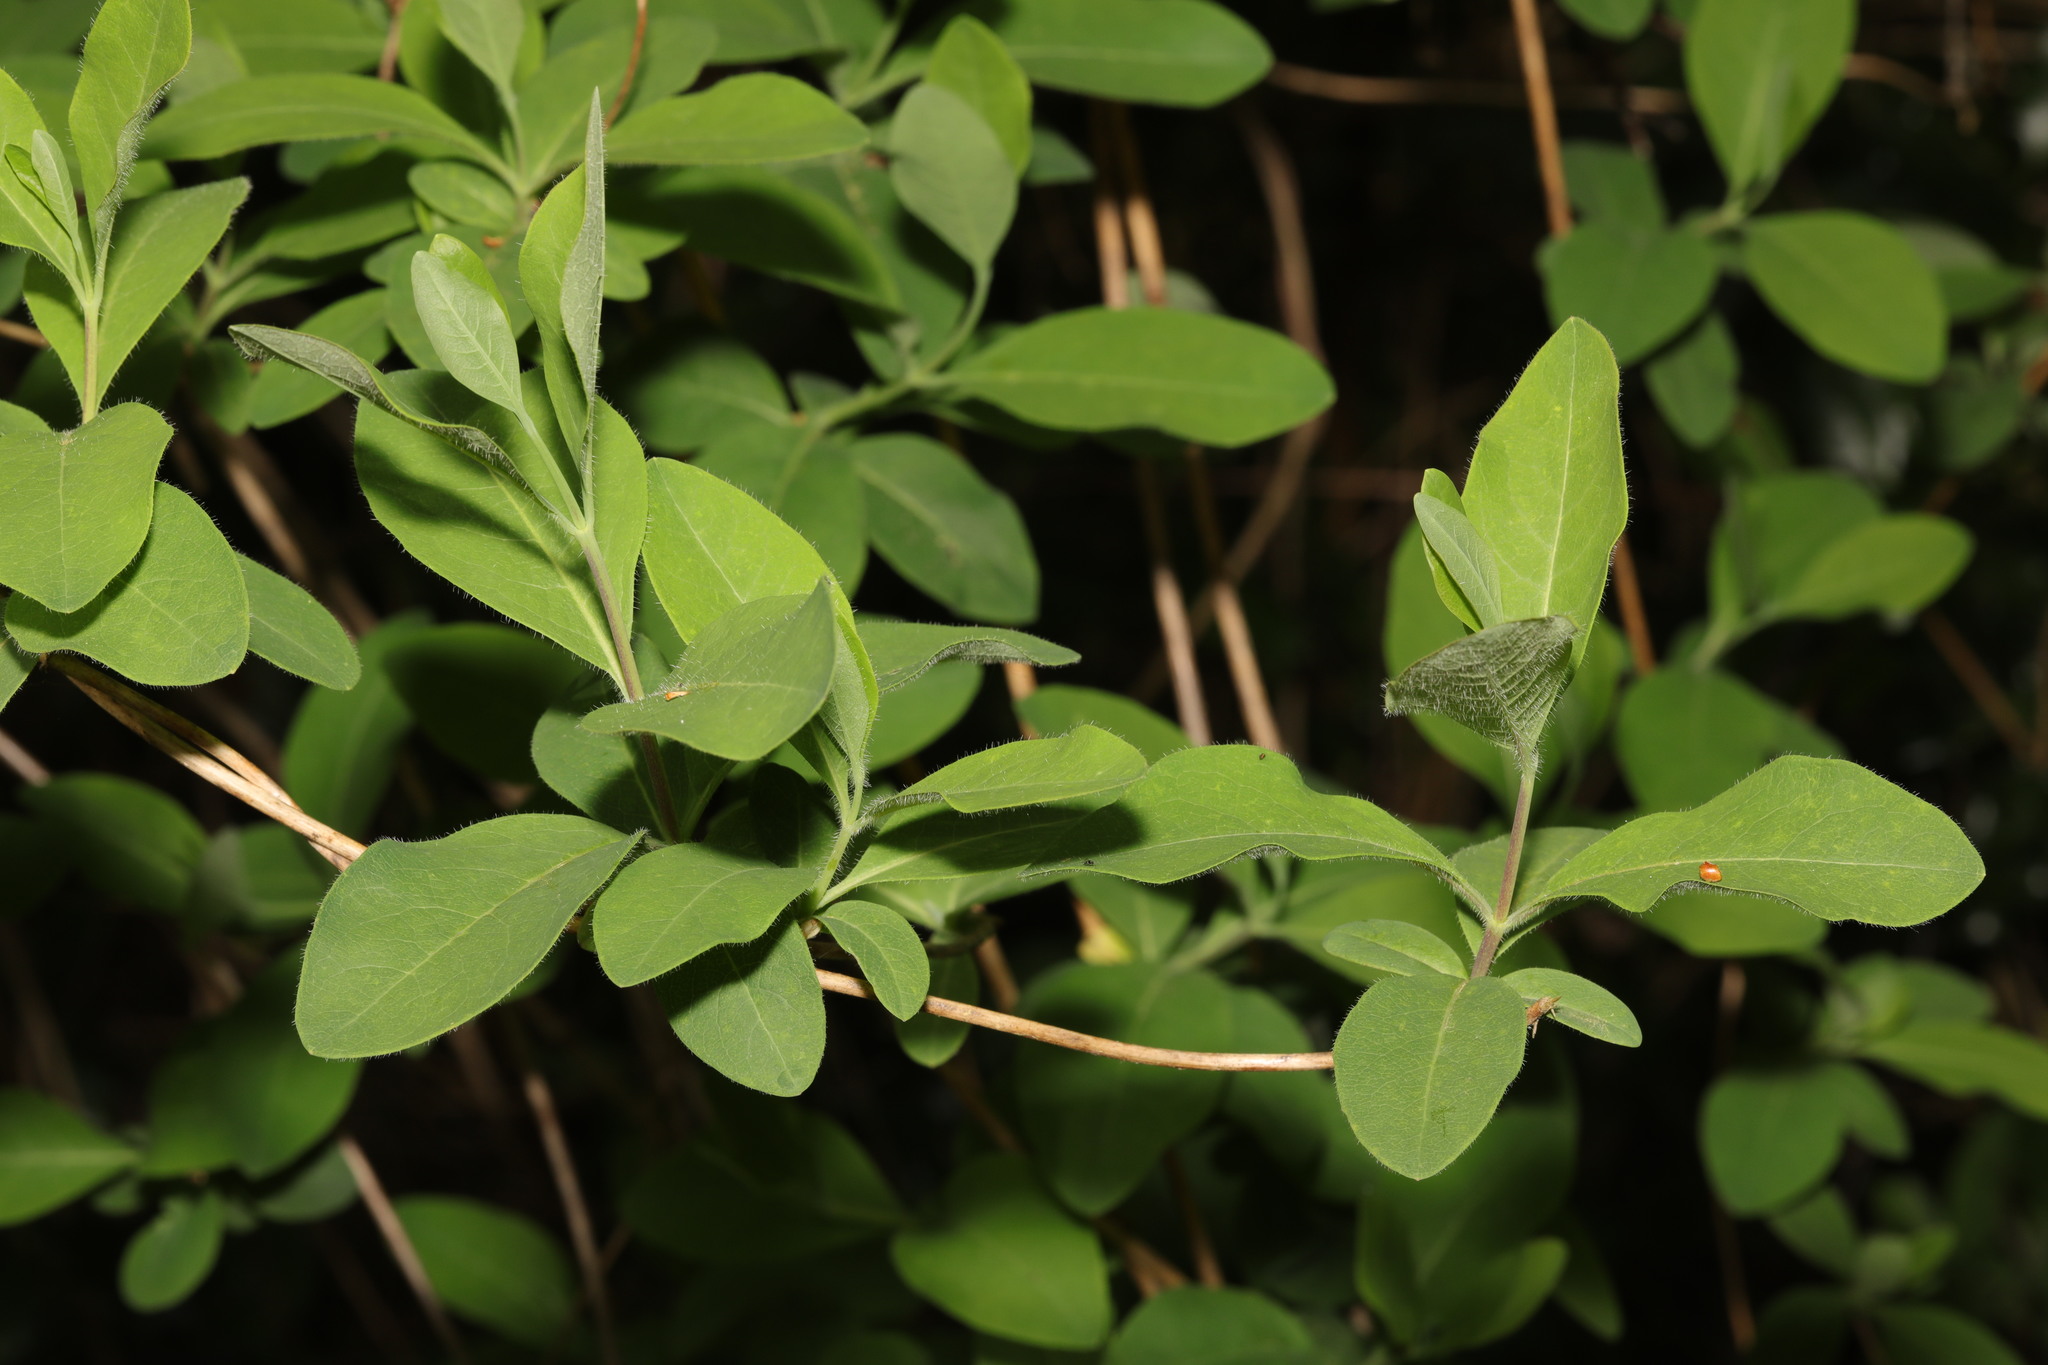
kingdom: Plantae
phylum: Tracheophyta
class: Magnoliopsida
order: Dipsacales
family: Caprifoliaceae
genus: Lonicera
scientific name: Lonicera periclymenum
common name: European honeysuckle
